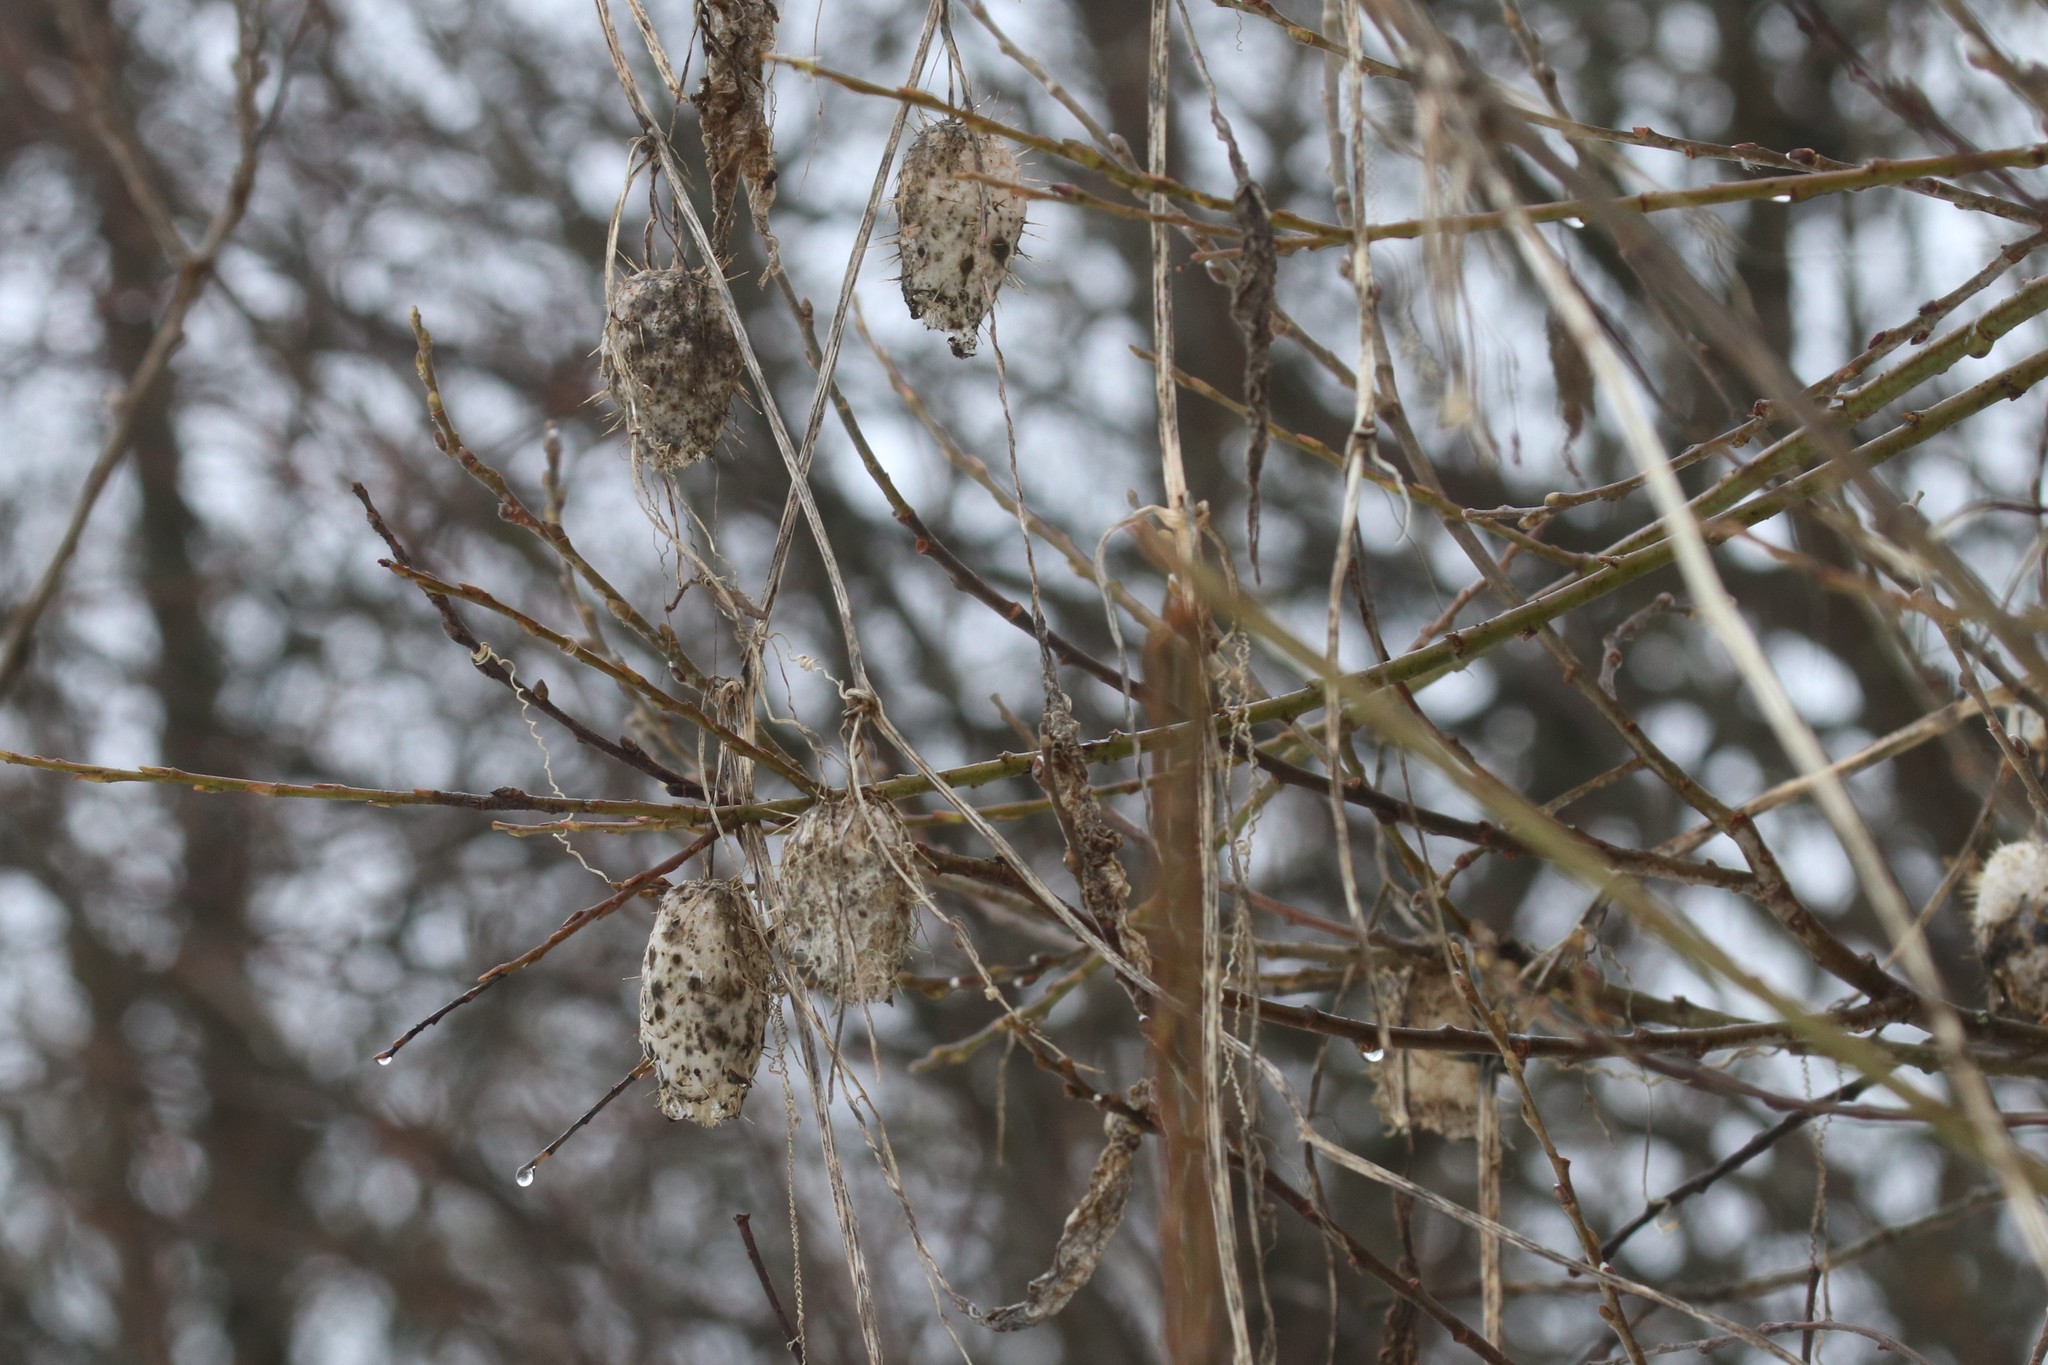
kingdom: Plantae
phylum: Tracheophyta
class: Magnoliopsida
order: Cucurbitales
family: Cucurbitaceae
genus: Echinocystis
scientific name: Echinocystis lobata
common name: Wild cucumber
